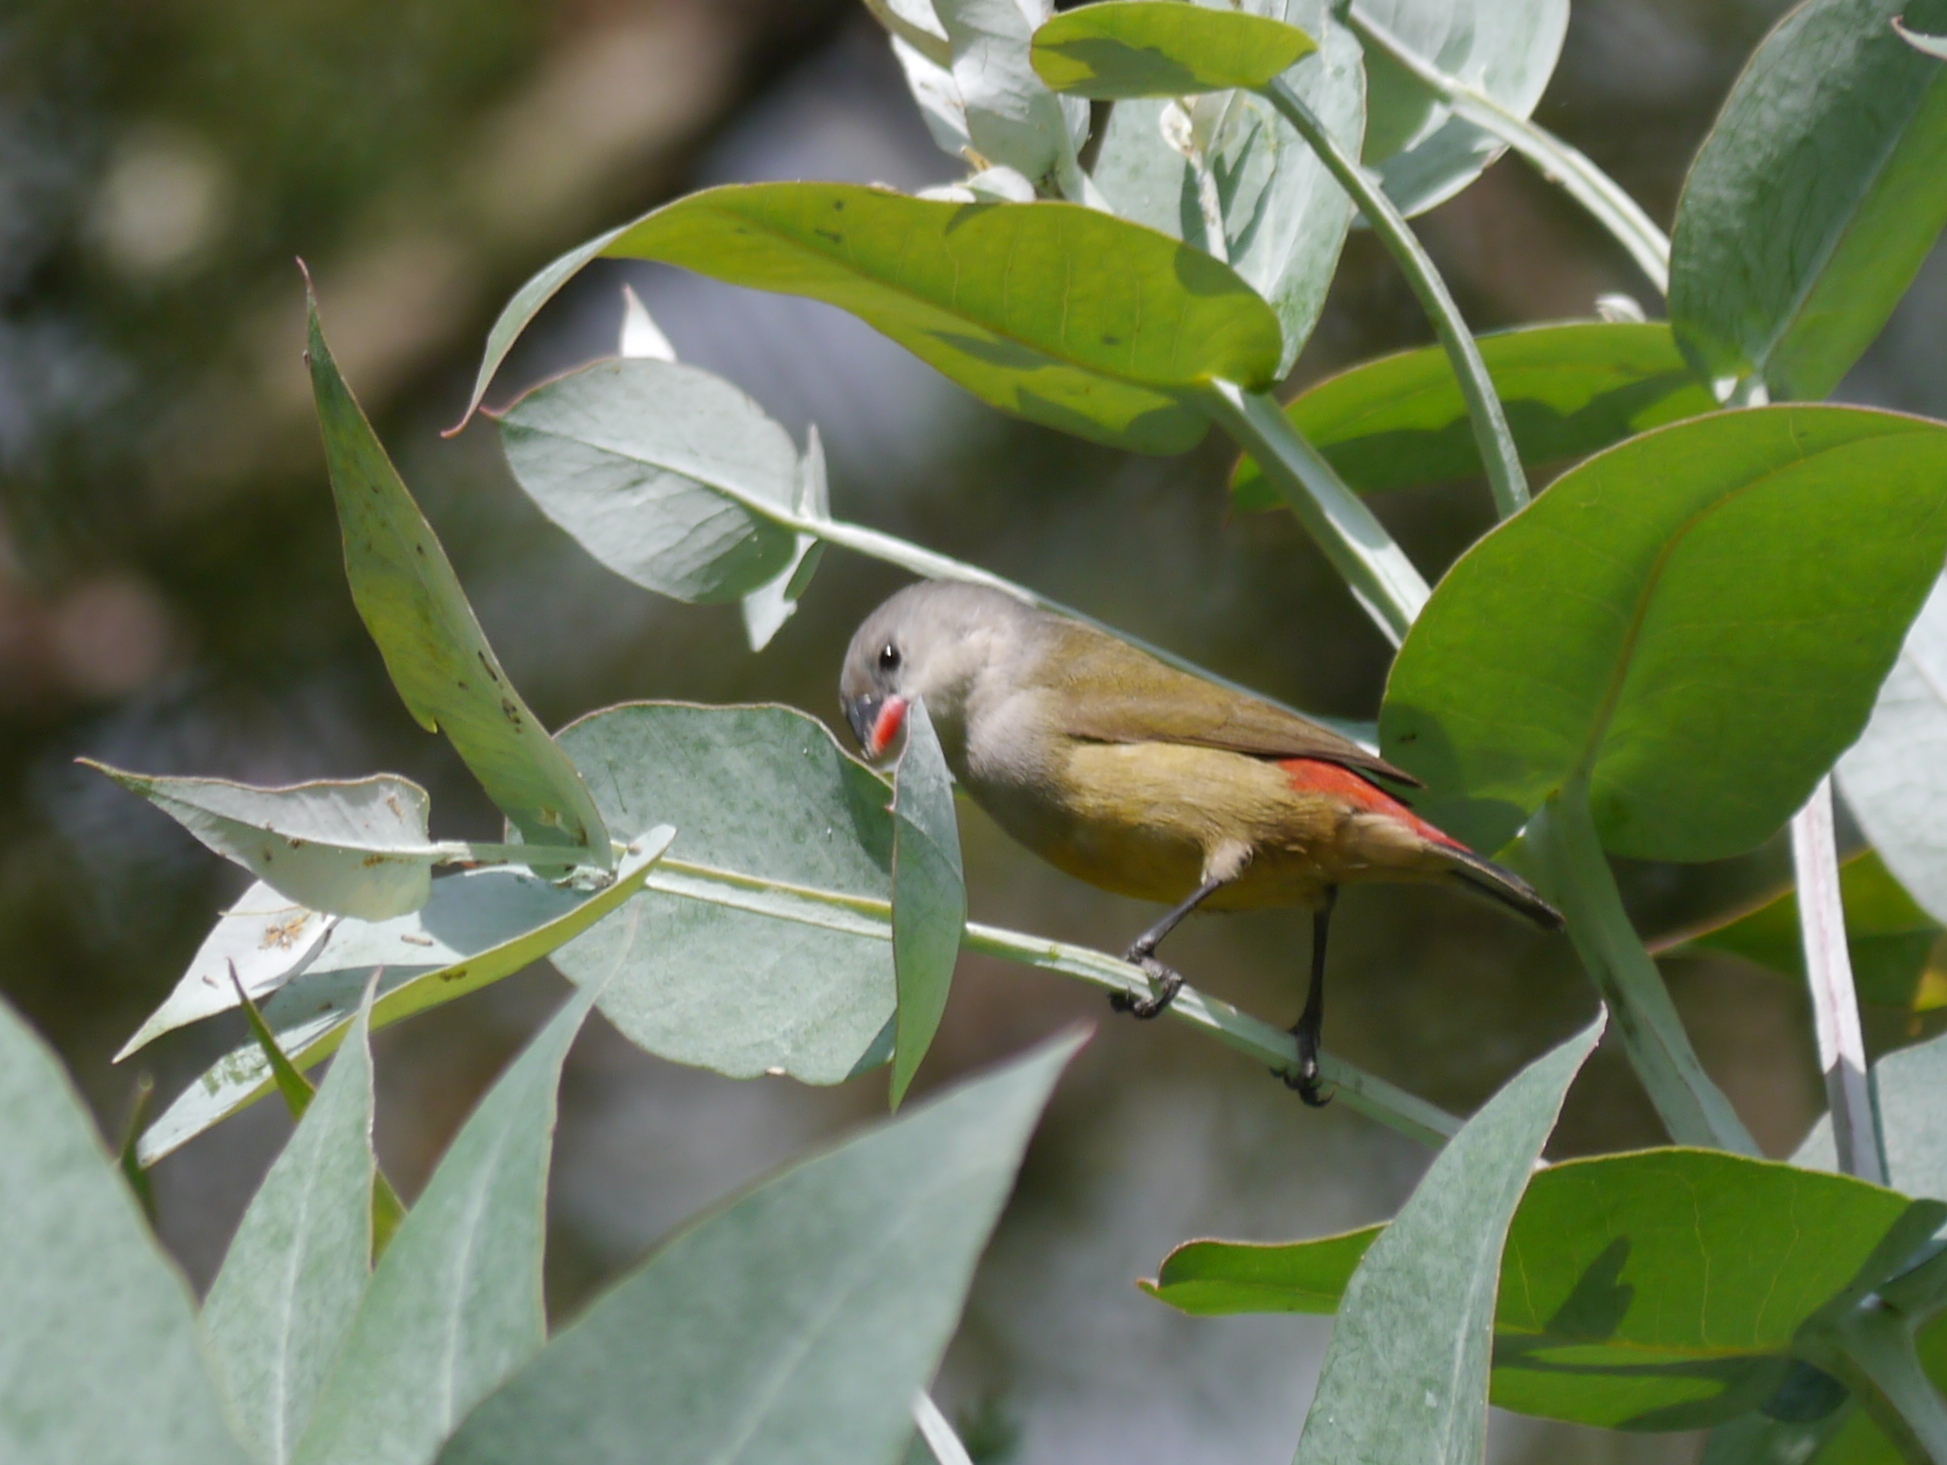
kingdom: Animalia
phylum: Chordata
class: Aves
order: Passeriformes
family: Estrildidae
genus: Coccopygia
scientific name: Coccopygia quartinia
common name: Yellow-bellied waxbill
